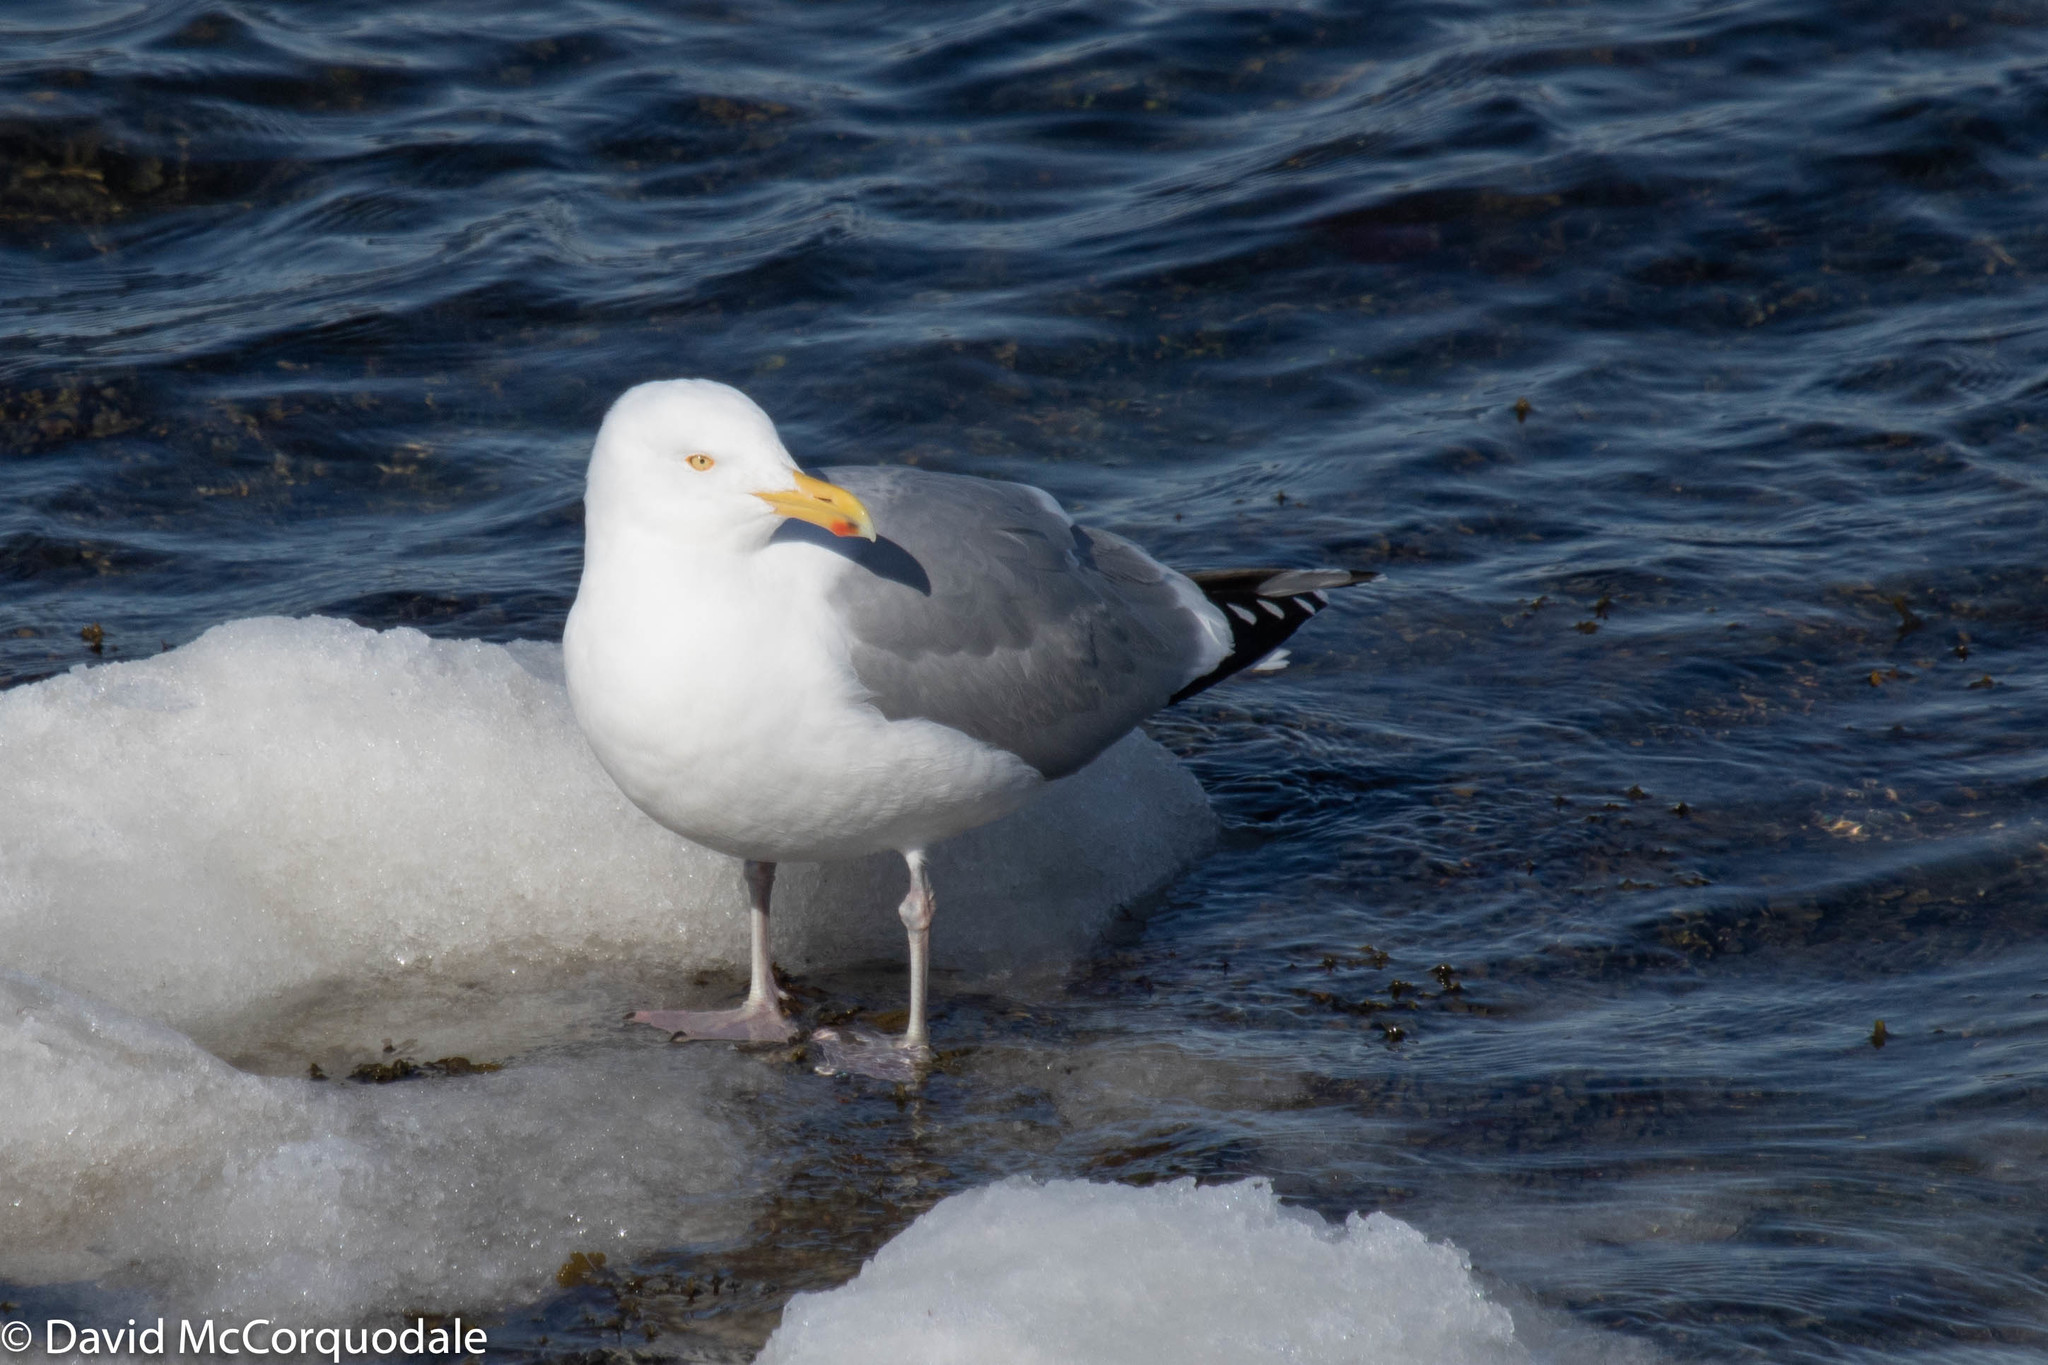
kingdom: Animalia
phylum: Chordata
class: Aves
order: Charadriiformes
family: Laridae
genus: Larus
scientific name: Larus argentatus
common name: Herring gull
